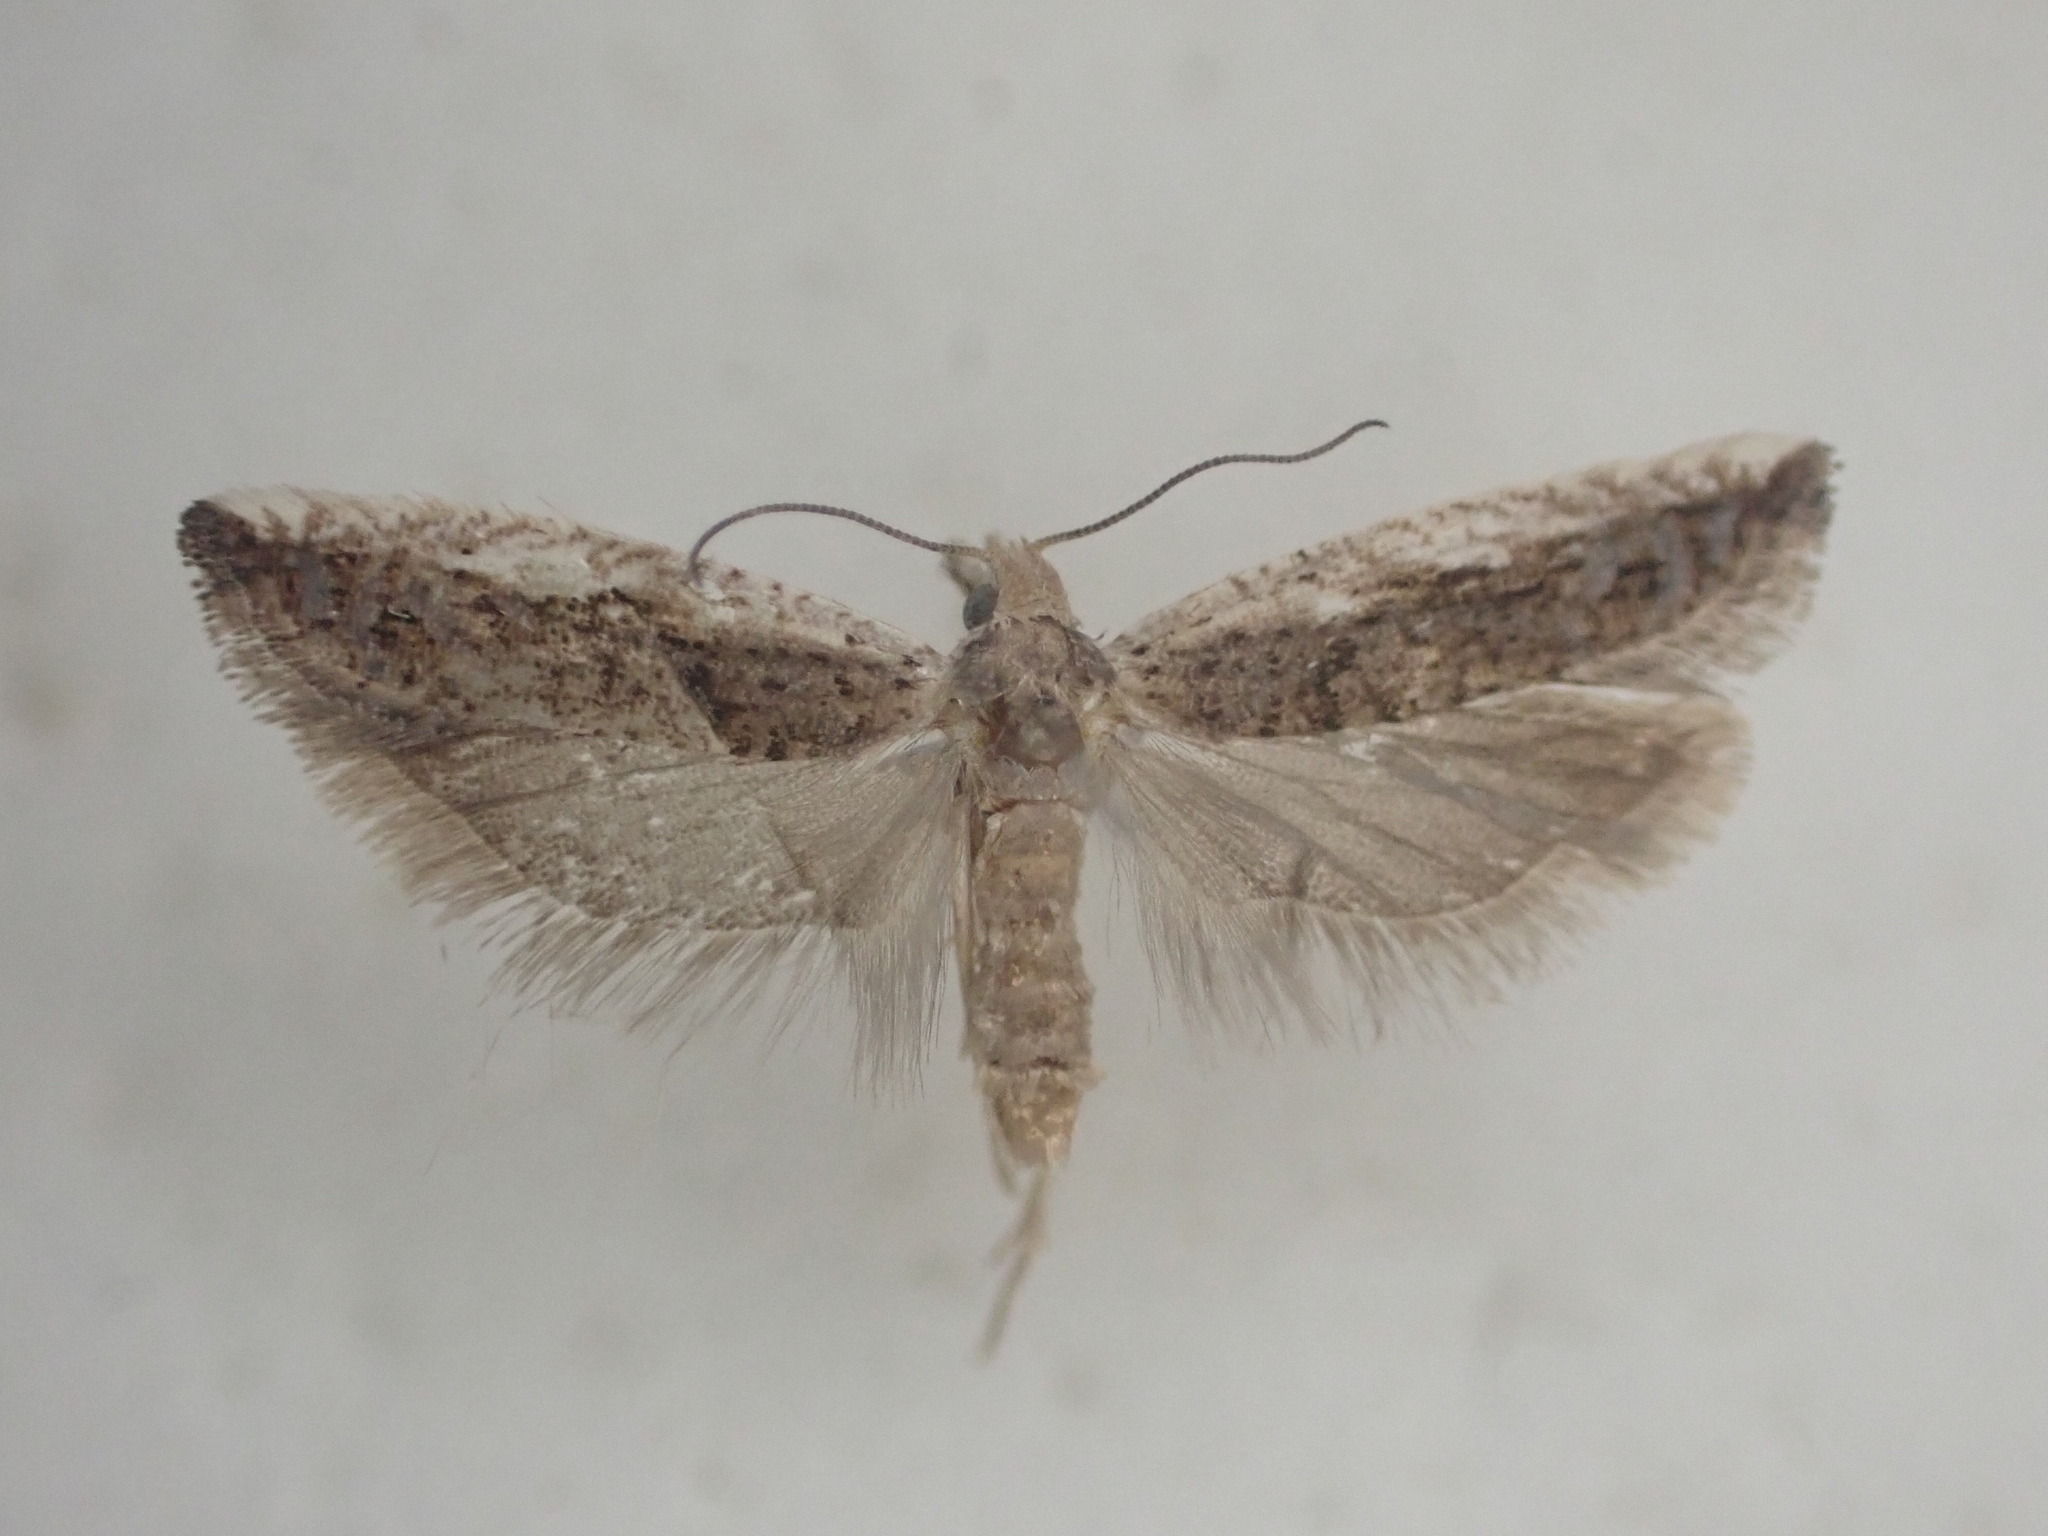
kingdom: Animalia
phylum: Arthropoda
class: Insecta
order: Lepidoptera
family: Tortricidae
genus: Holocola
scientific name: Holocola zopherana
